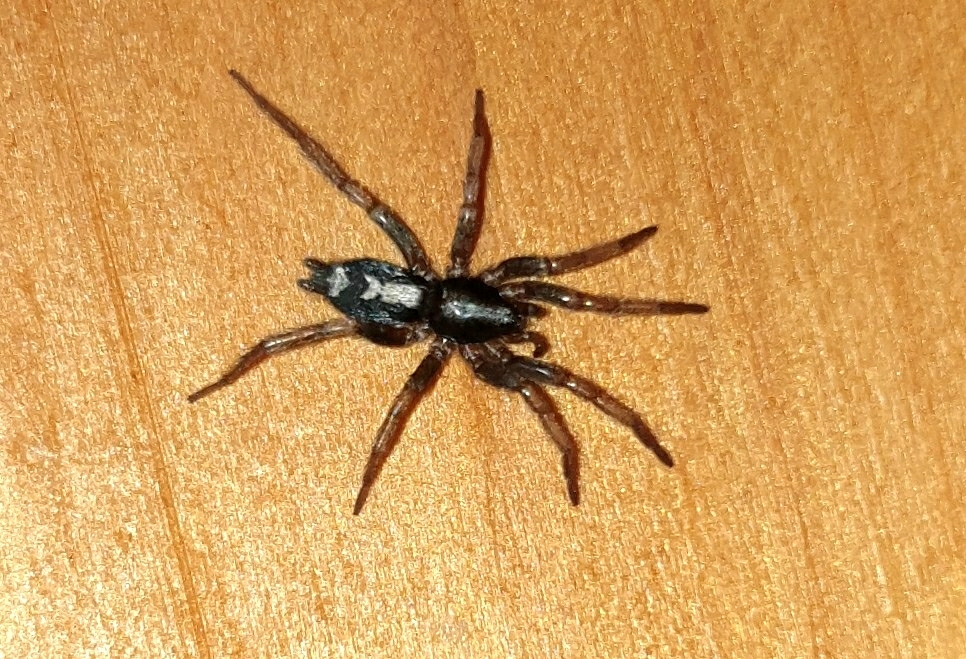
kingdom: Animalia
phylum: Arthropoda
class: Arachnida
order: Araneae
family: Gnaphosidae
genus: Herpyllus
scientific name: Herpyllus ecclesiasticus
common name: Eastern parson spider
